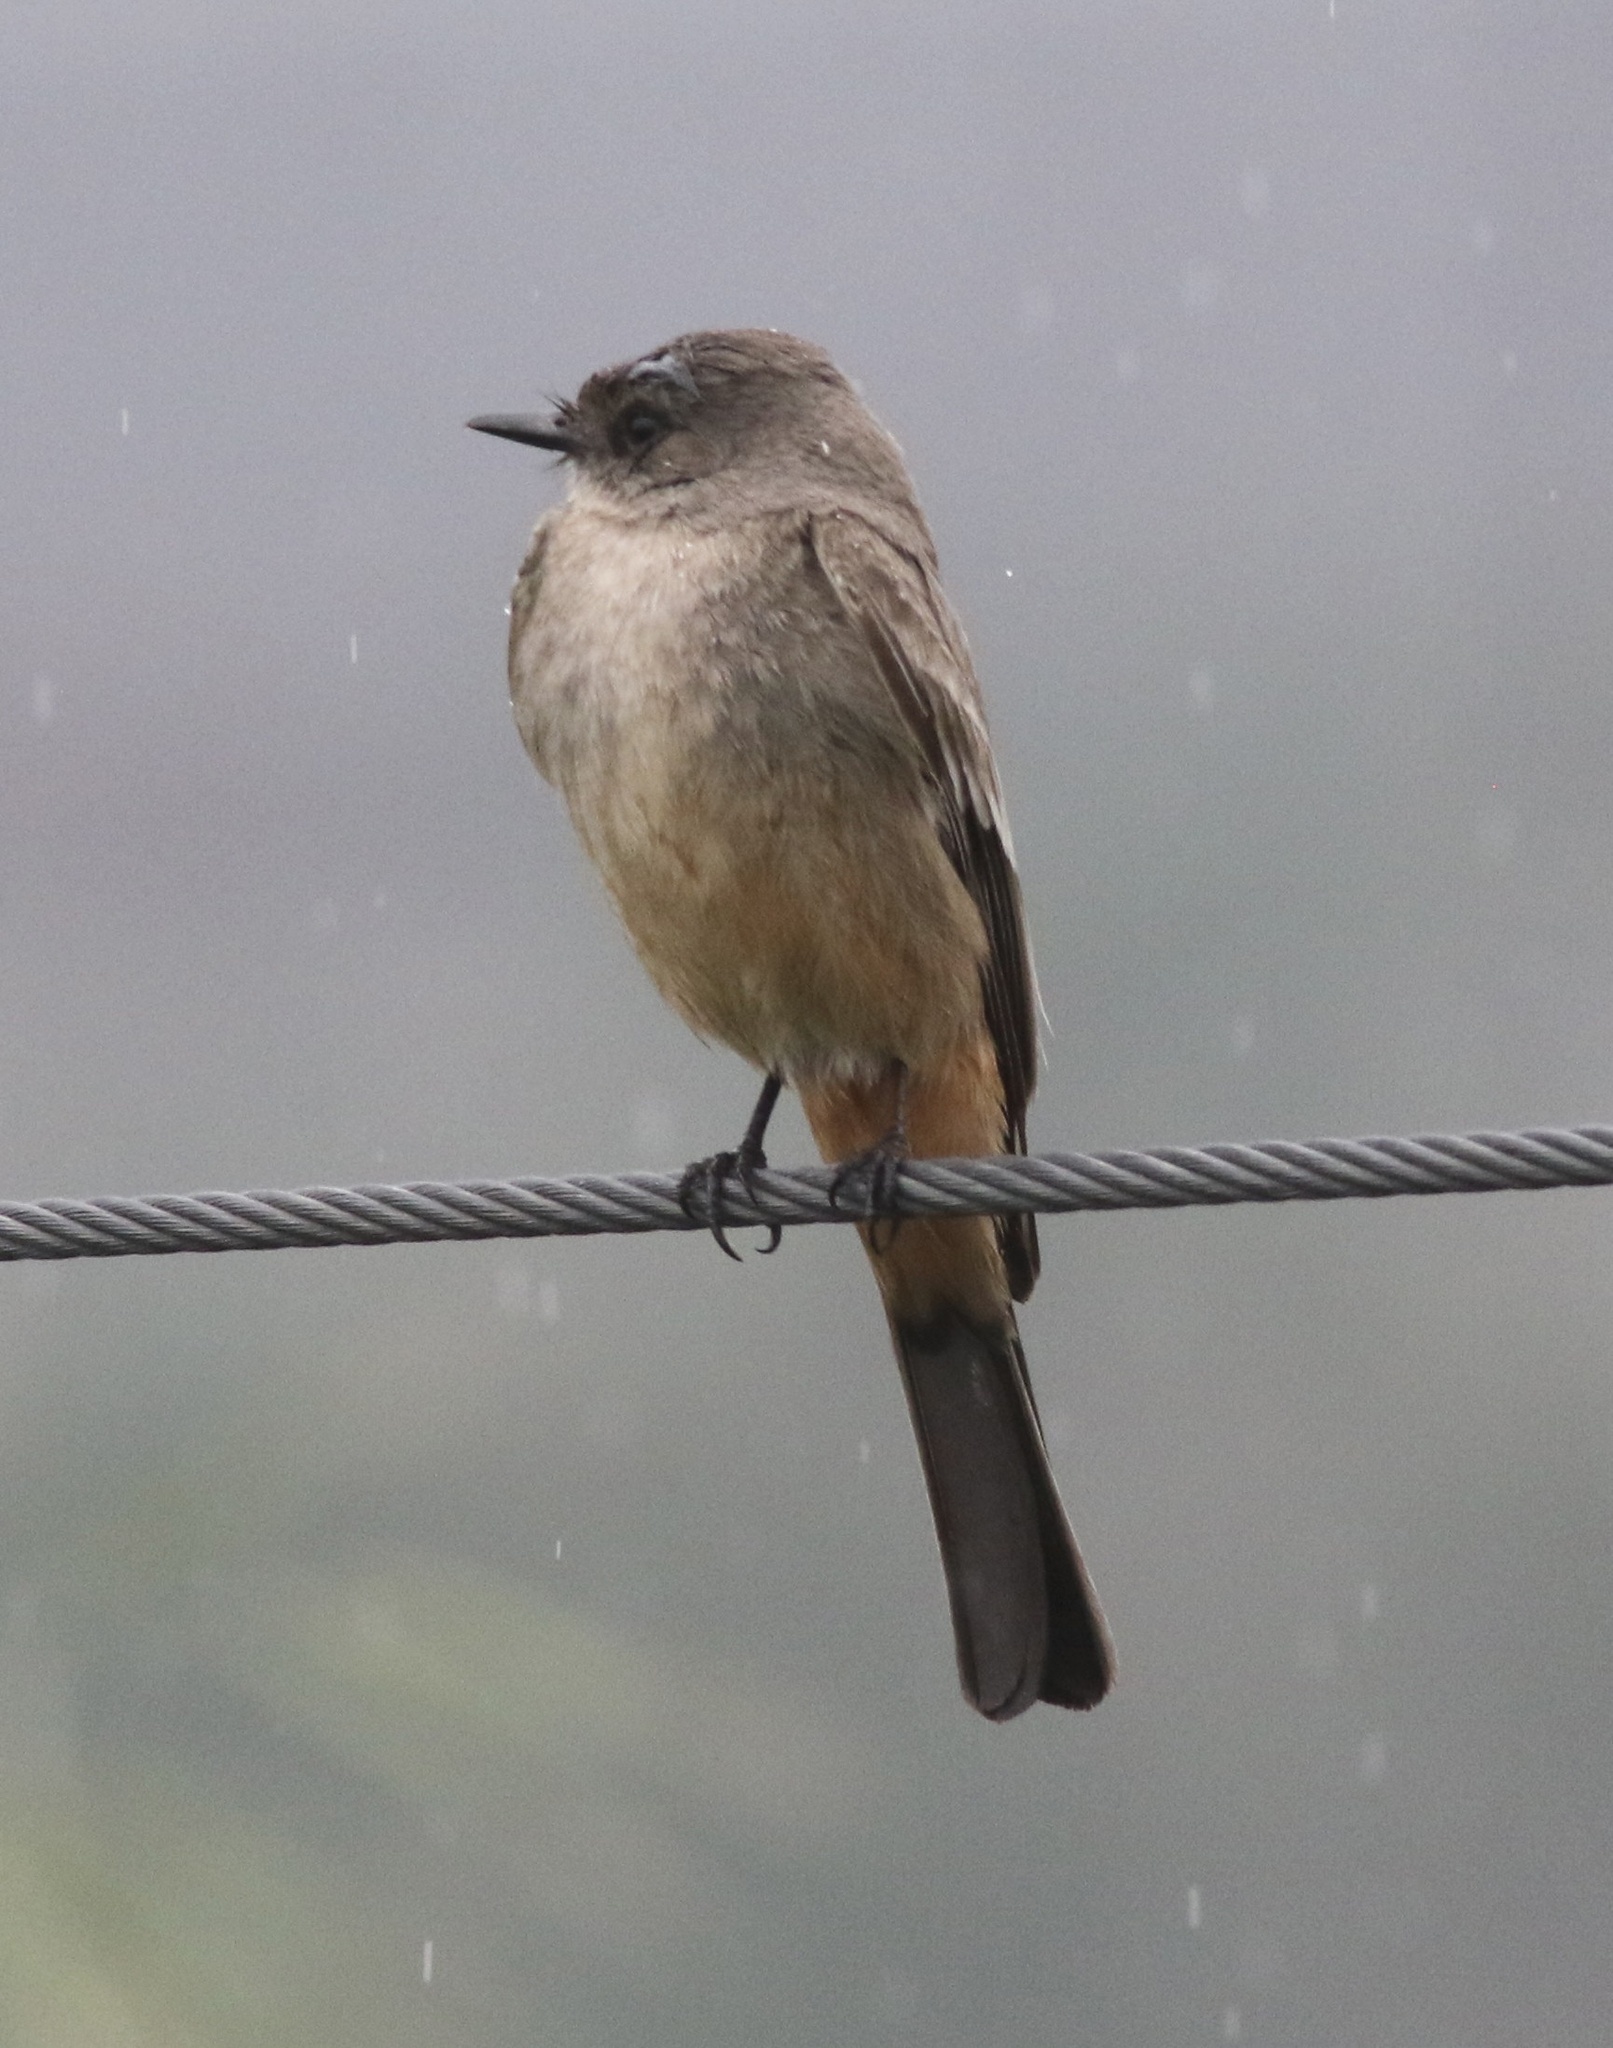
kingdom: Animalia
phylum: Chordata
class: Aves
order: Passeriformes
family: Tyrannidae
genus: Sayornis
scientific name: Sayornis saya
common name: Say's phoebe
